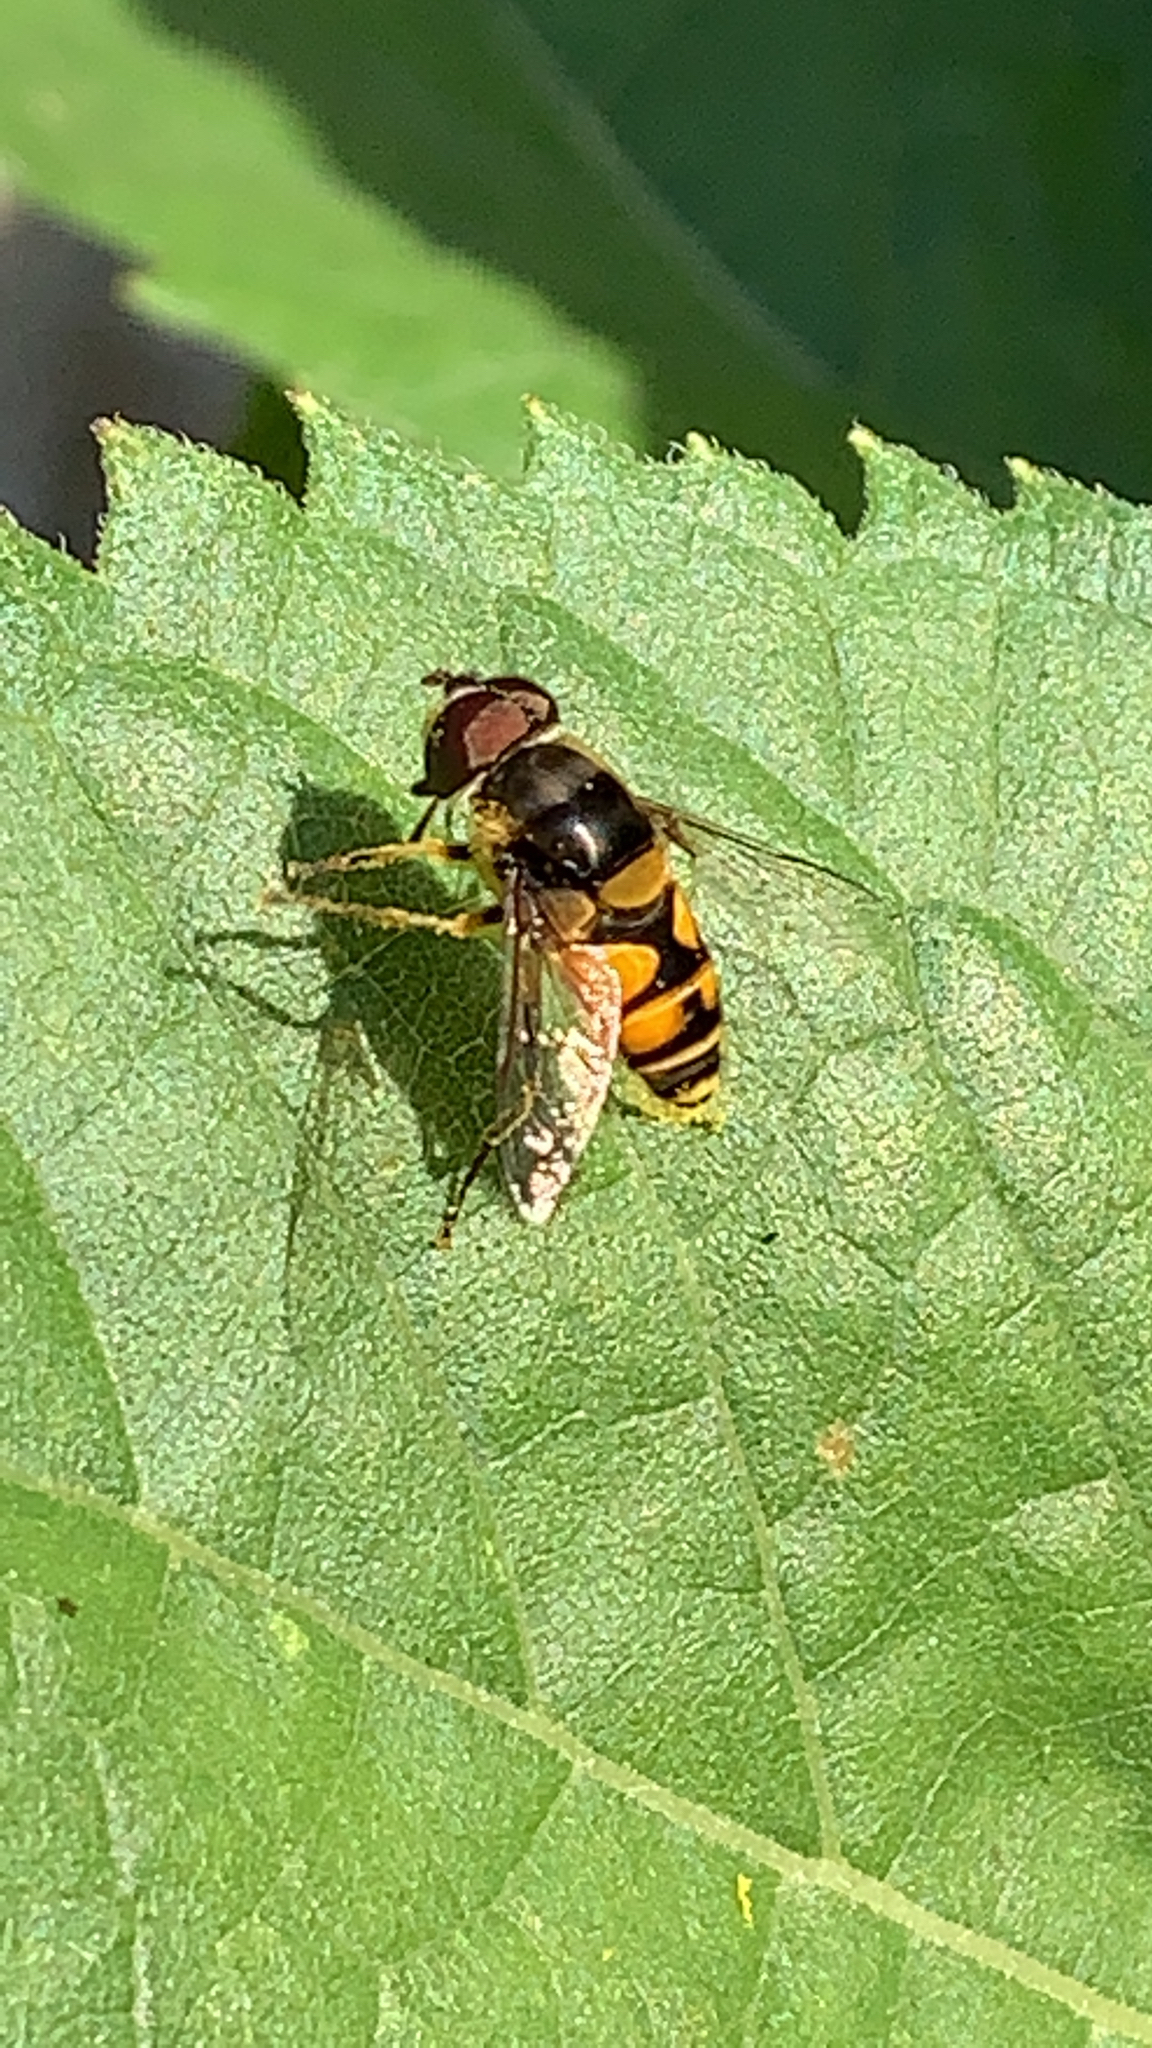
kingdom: Animalia
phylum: Arthropoda
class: Insecta
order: Diptera
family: Syrphidae
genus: Eristalis
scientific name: Eristalis transversa
